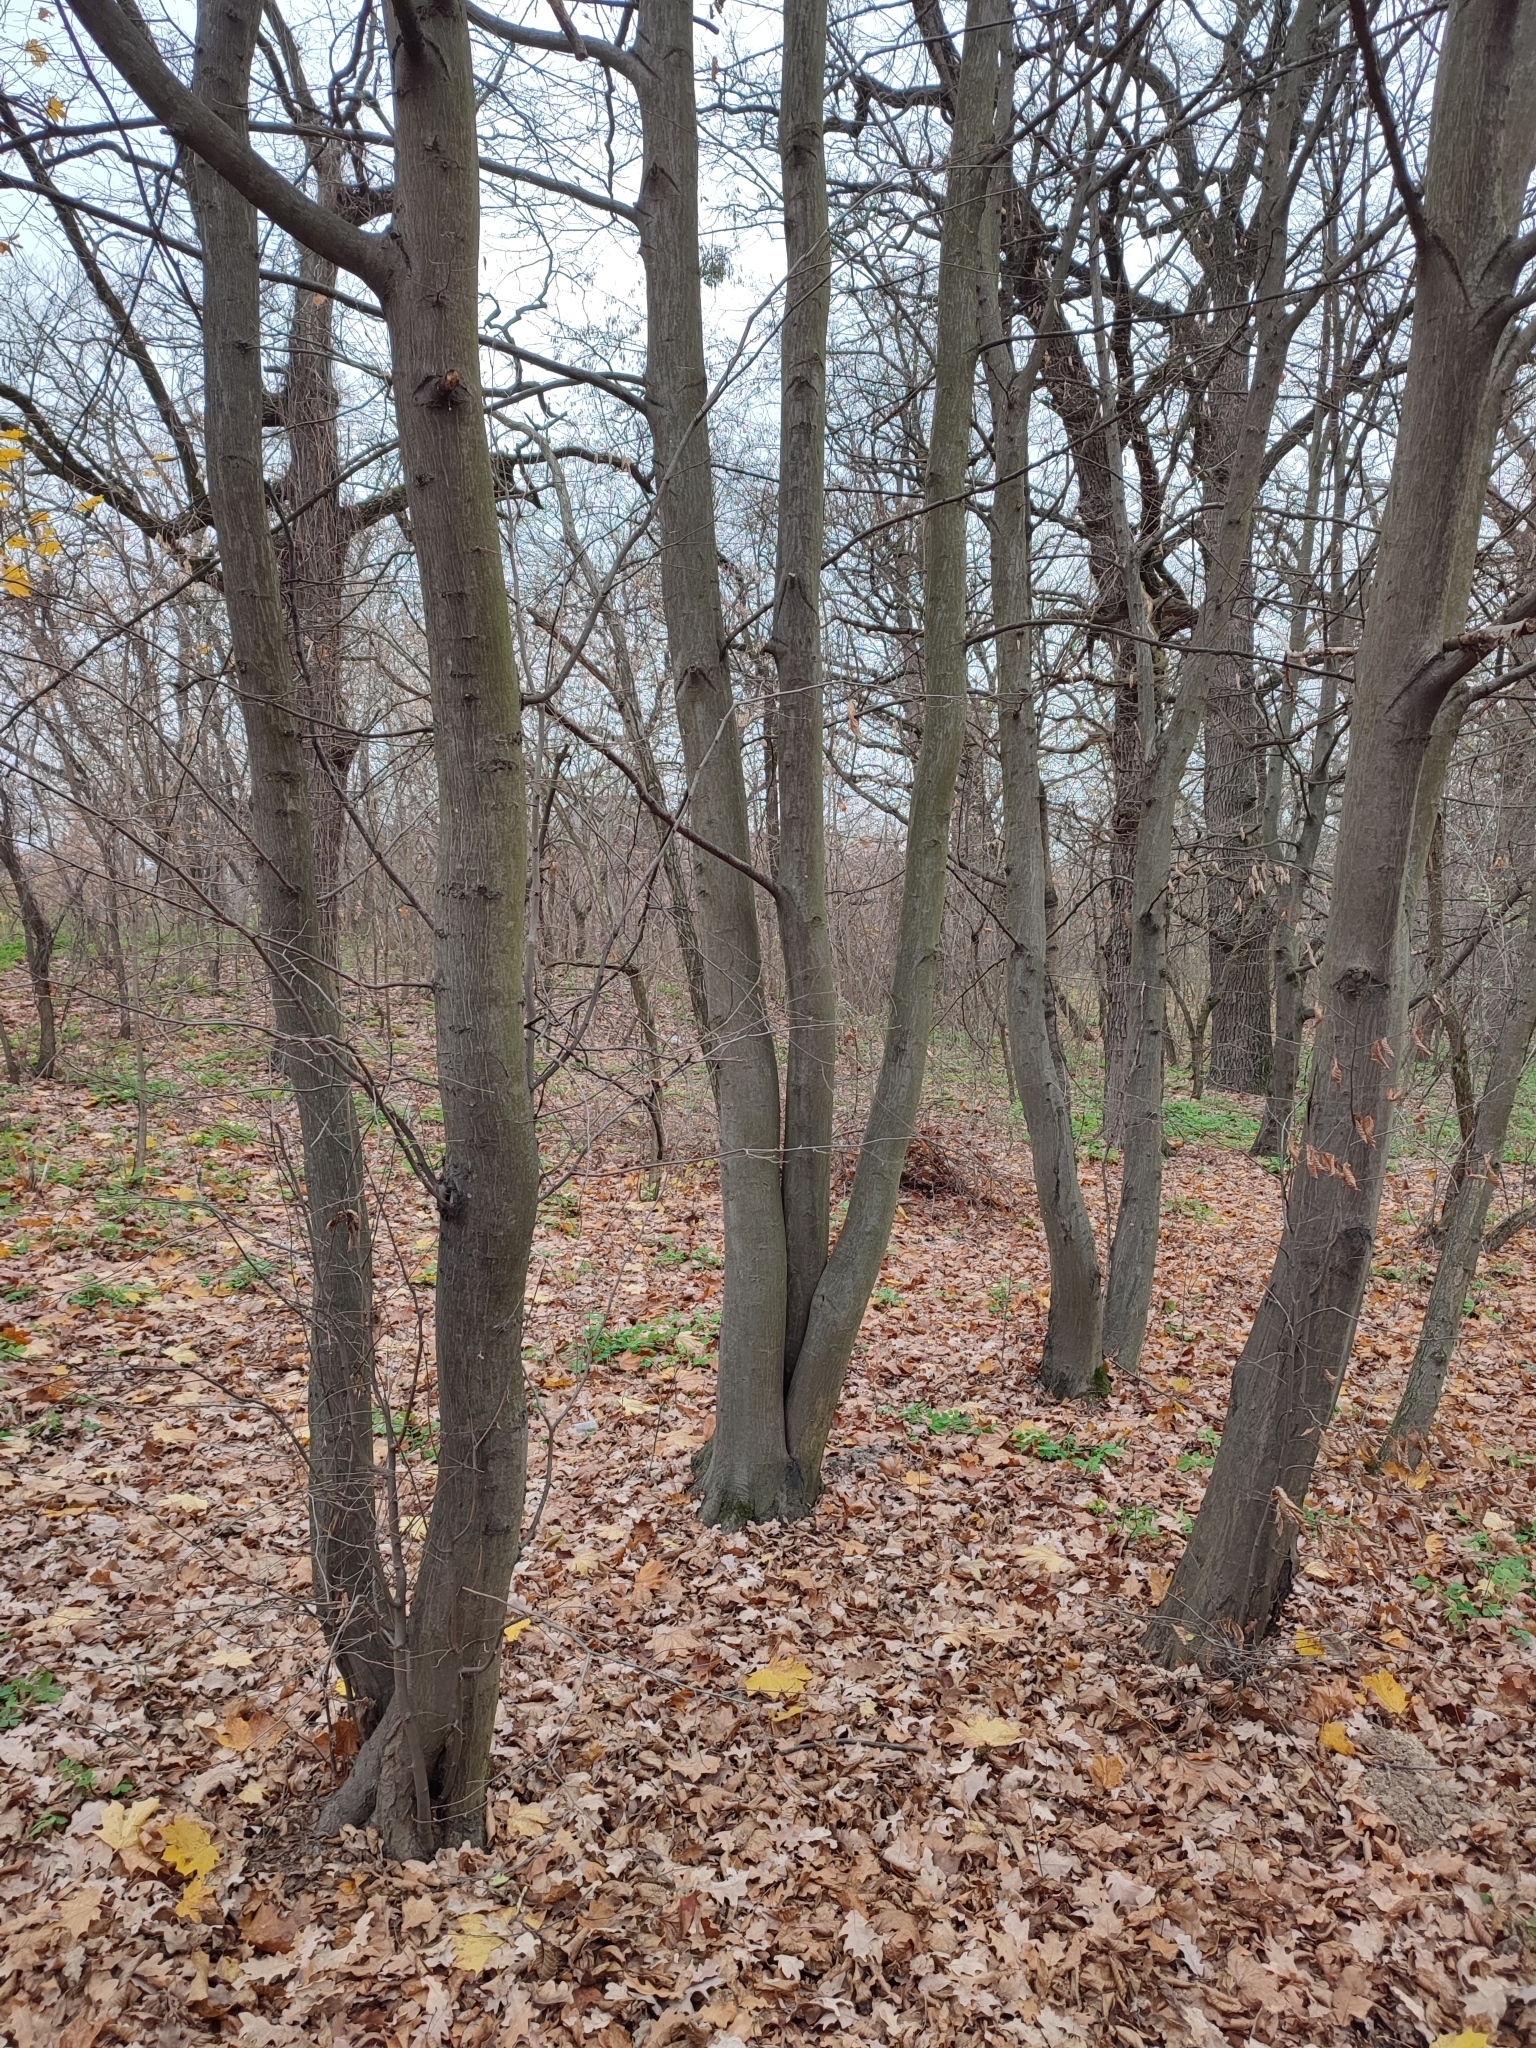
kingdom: Plantae
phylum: Tracheophyta
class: Magnoliopsida
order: Fagales
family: Betulaceae
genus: Carpinus
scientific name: Carpinus betulus
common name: Hornbeam
